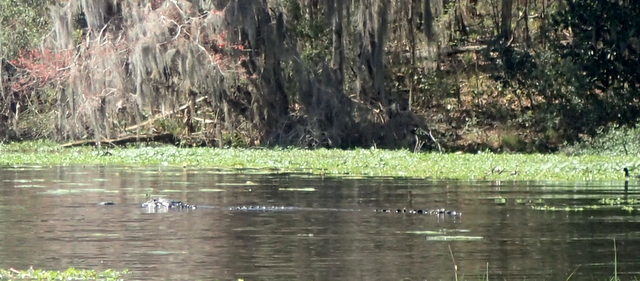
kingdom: Animalia
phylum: Chordata
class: Crocodylia
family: Alligatoridae
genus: Alligator
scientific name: Alligator mississippiensis
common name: American alligator
